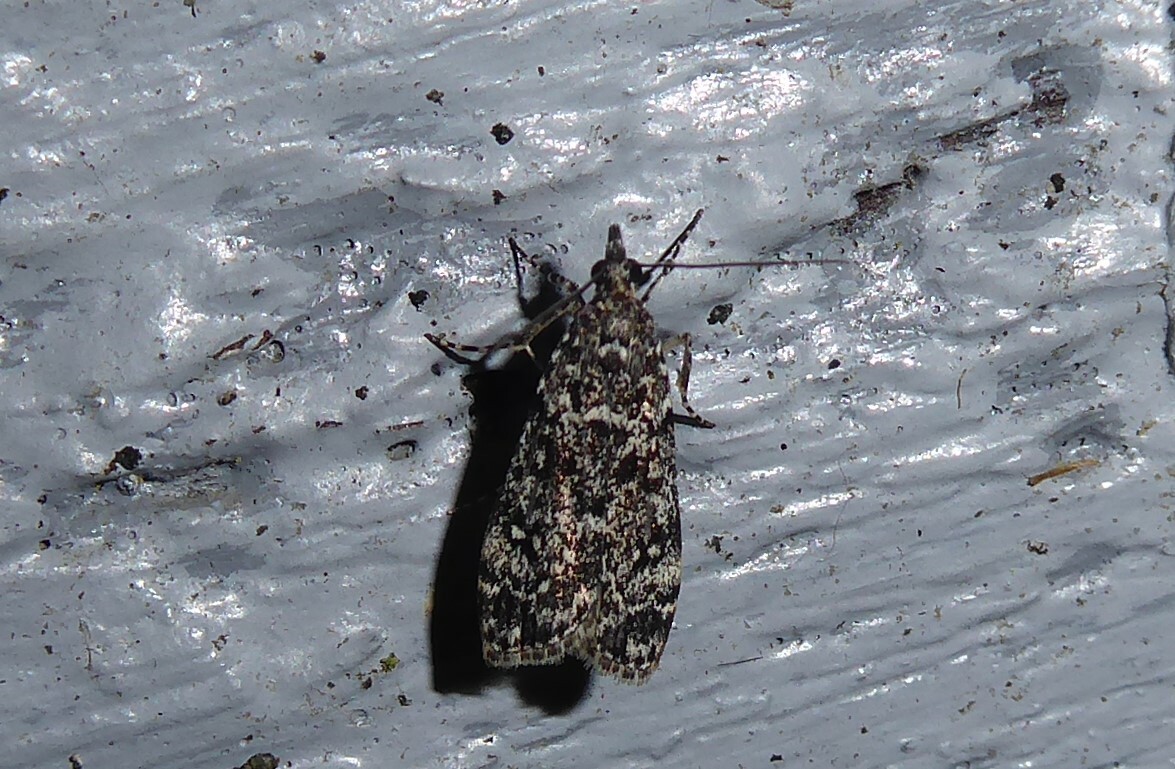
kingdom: Animalia
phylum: Arthropoda
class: Insecta
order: Lepidoptera
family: Crambidae
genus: Eudonia
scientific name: Eudonia philerga
